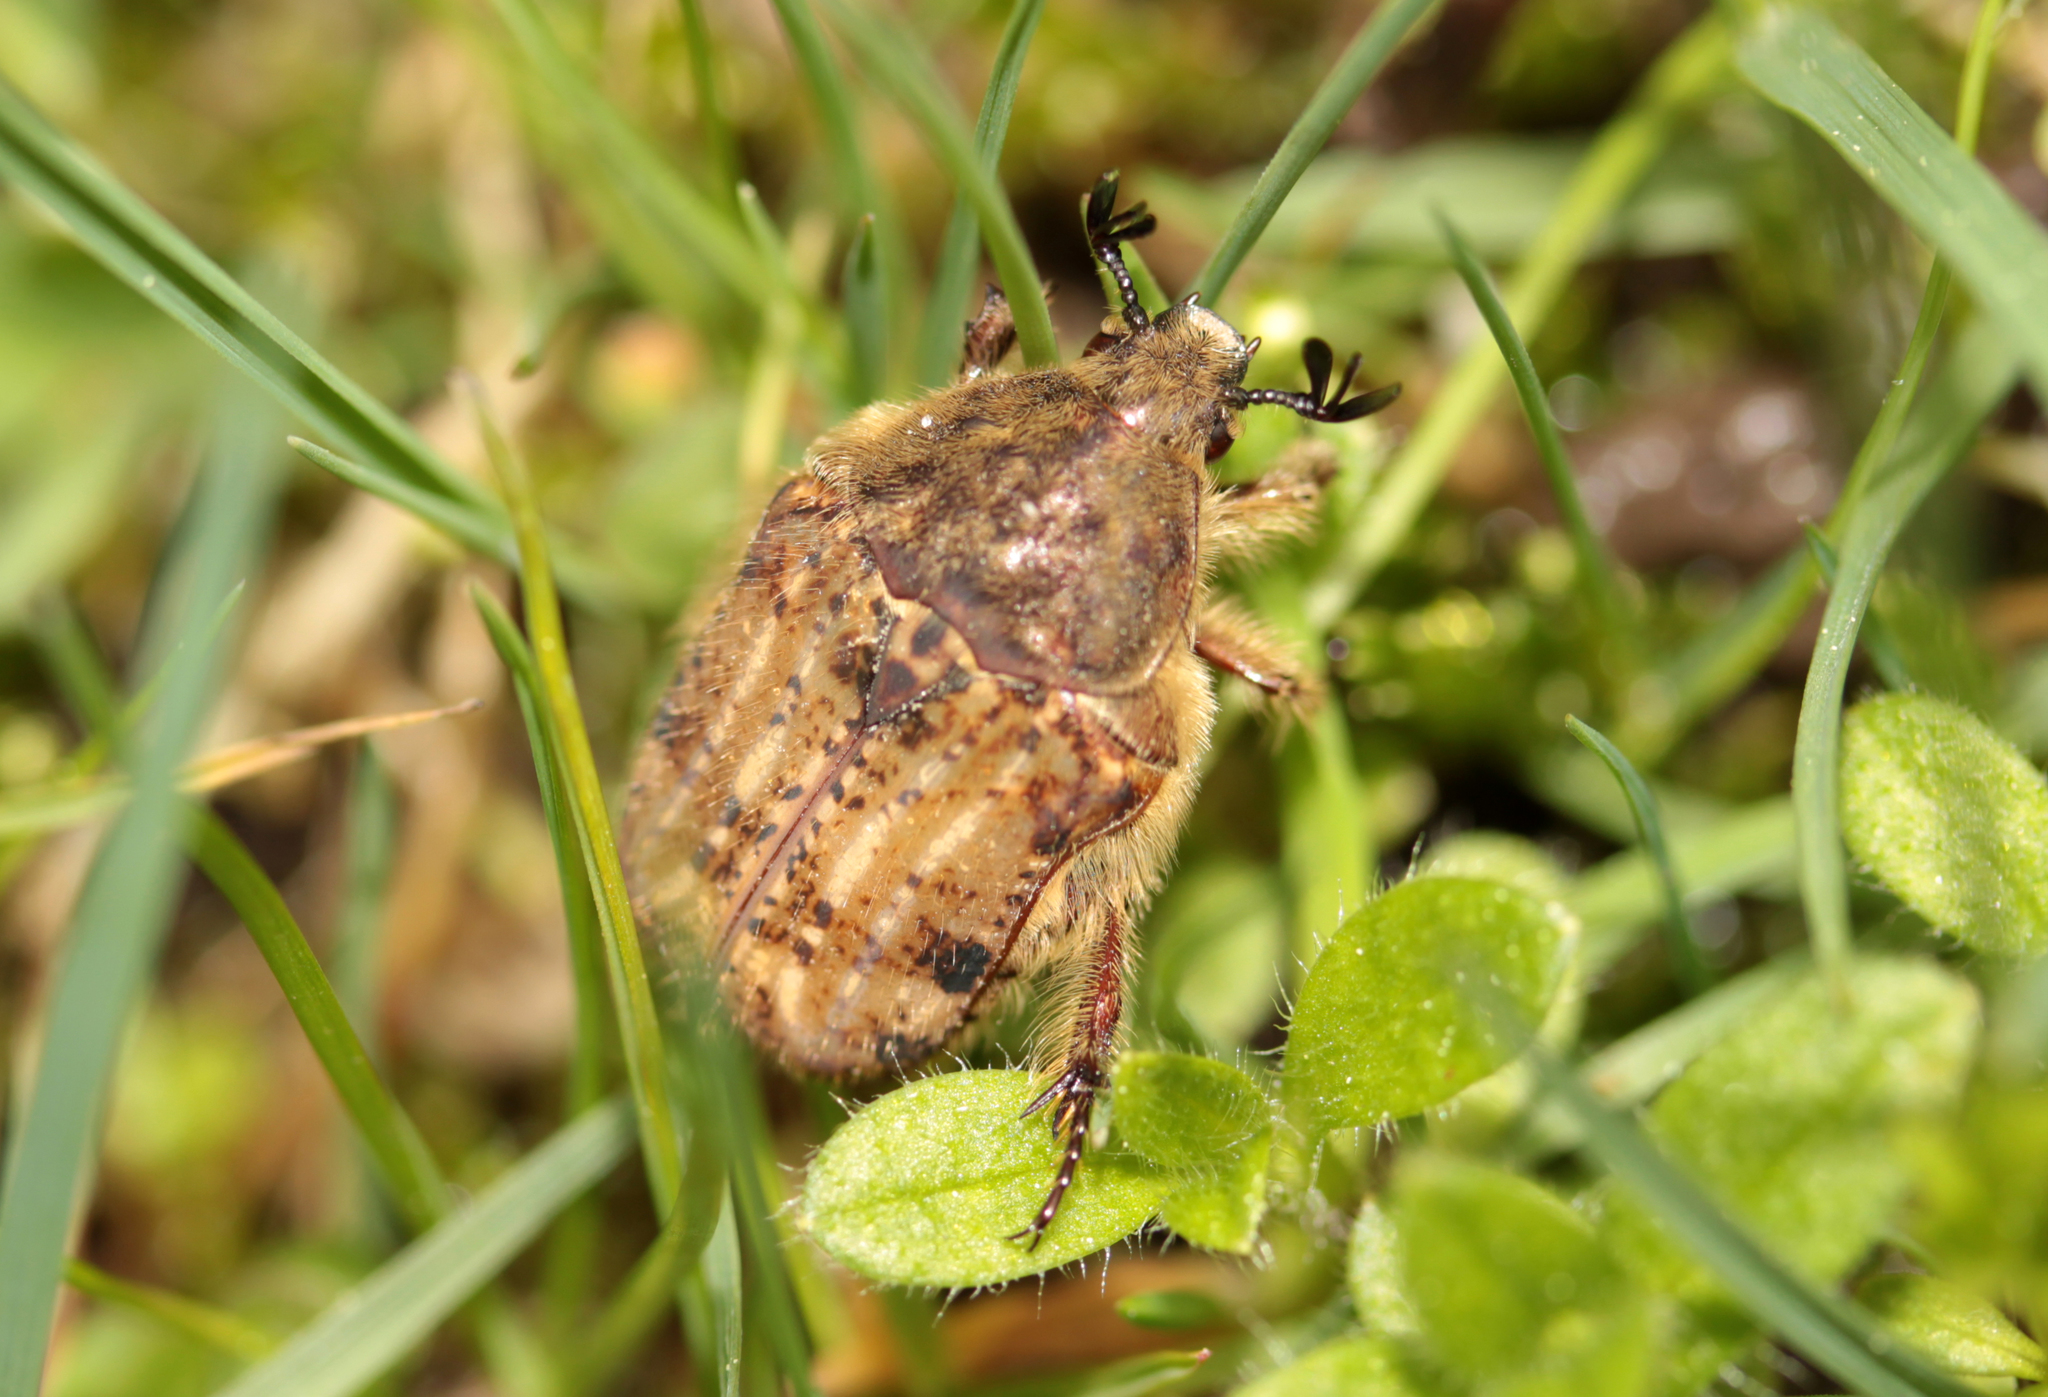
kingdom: Animalia
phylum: Arthropoda
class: Insecta
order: Coleoptera
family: Scarabaeidae
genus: Euphoria
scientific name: Euphoria inda
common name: Bumble flower beetle
